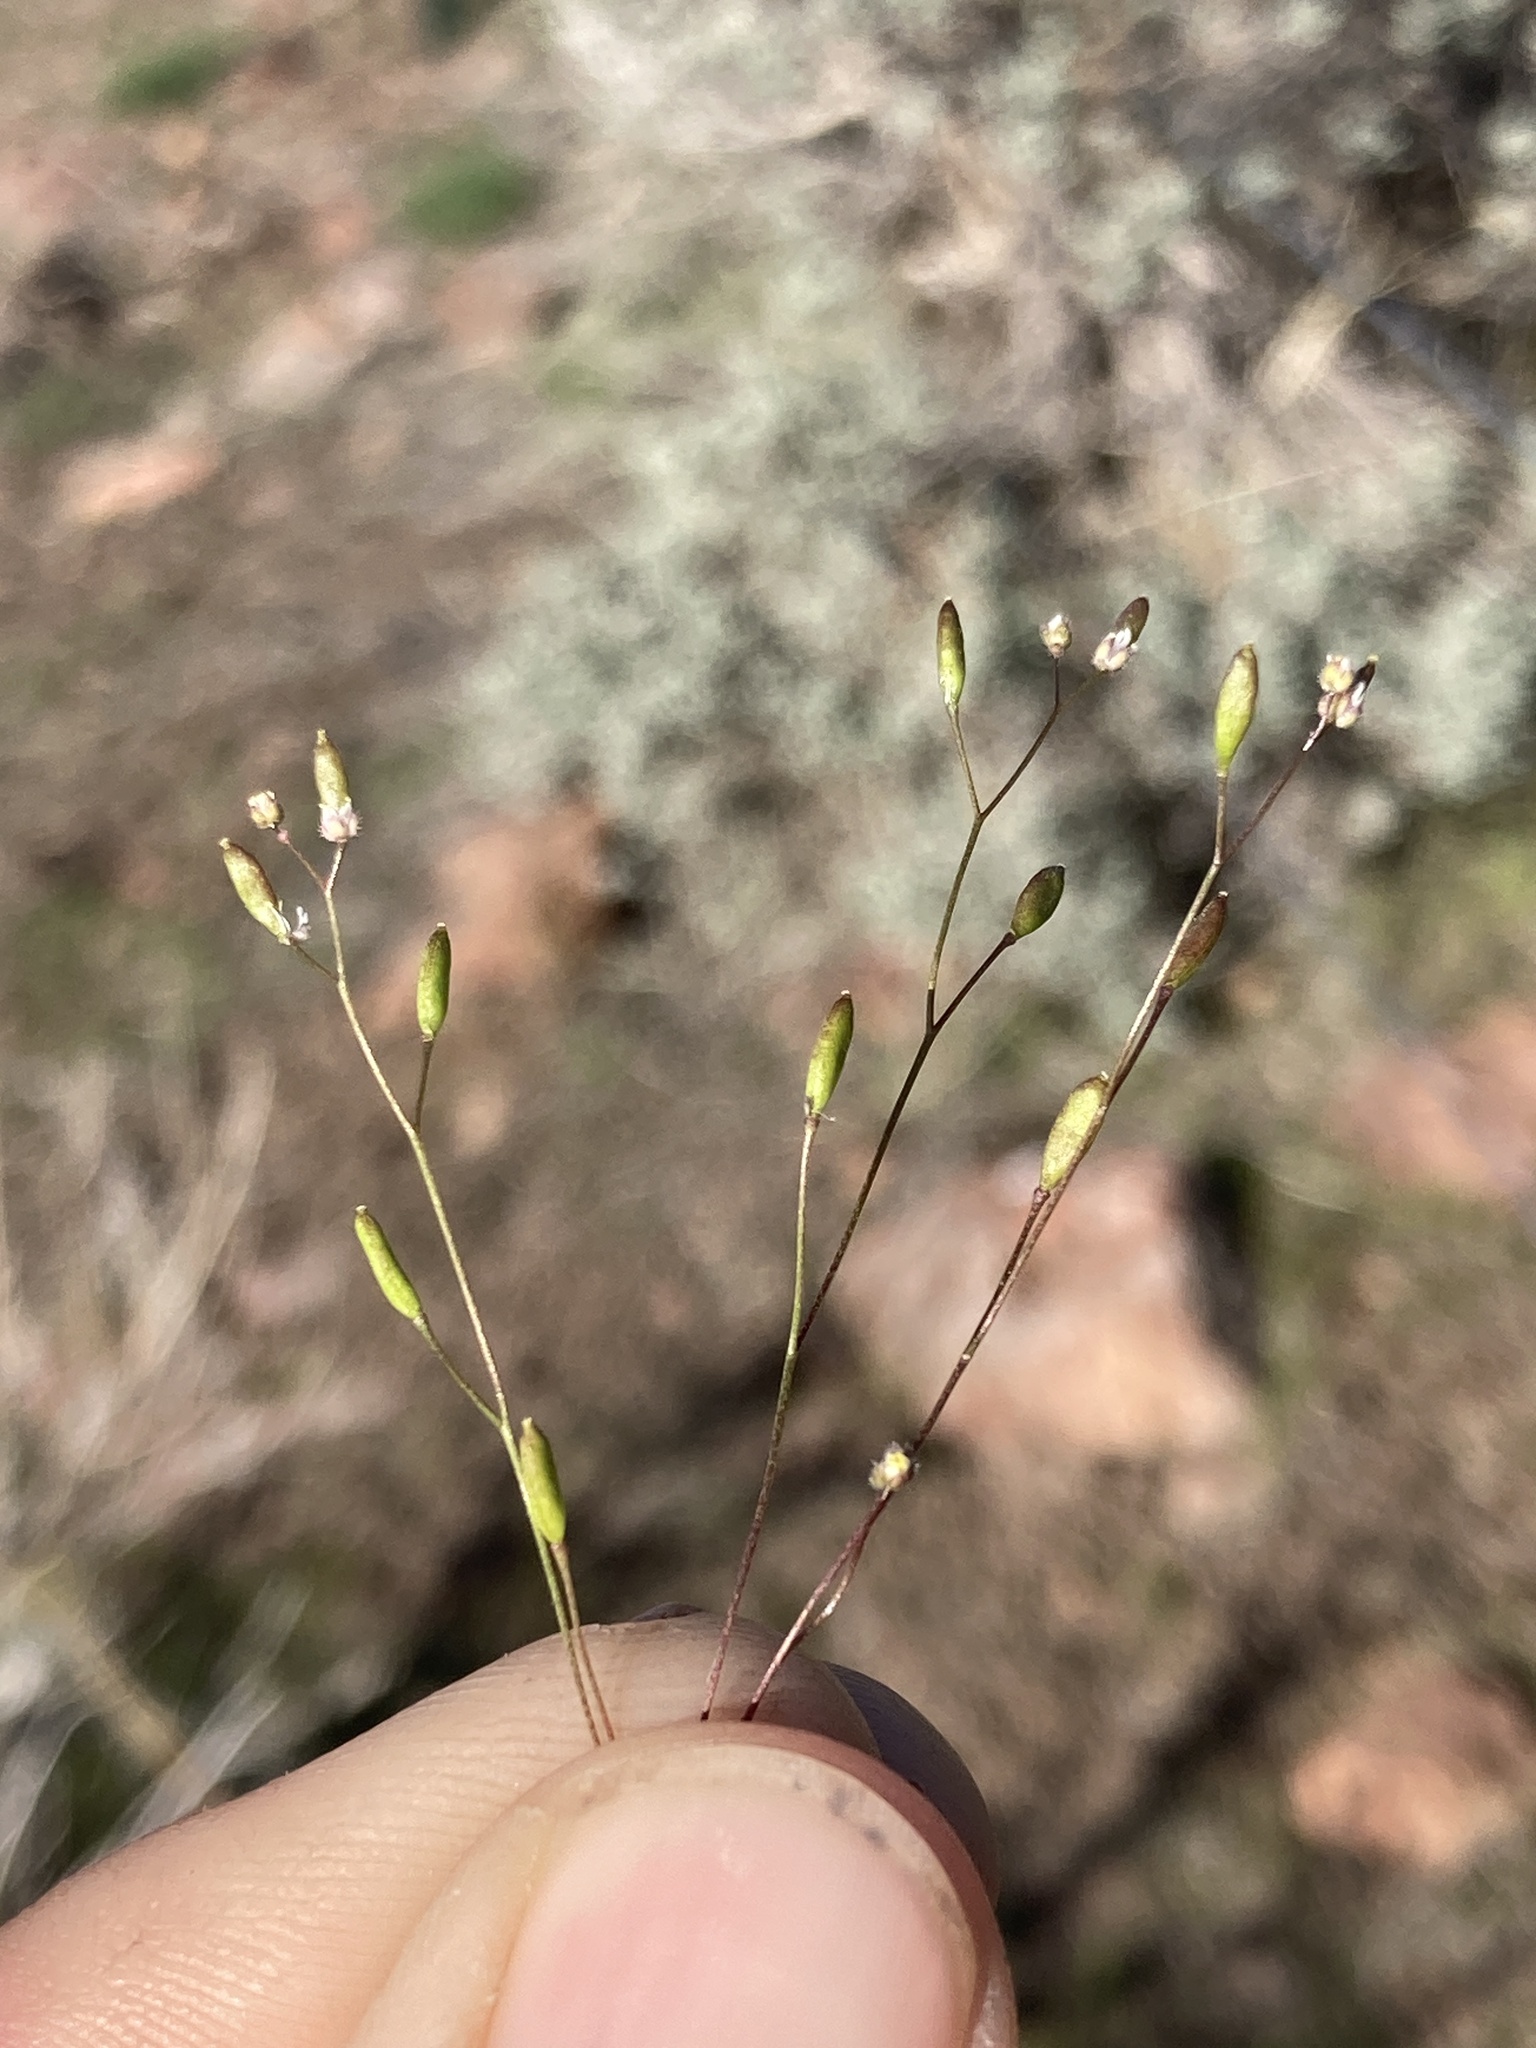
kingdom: Plantae
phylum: Tracheophyta
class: Magnoliopsida
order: Brassicales
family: Brassicaceae
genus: Draba
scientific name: Draba verna
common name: Spring draba
